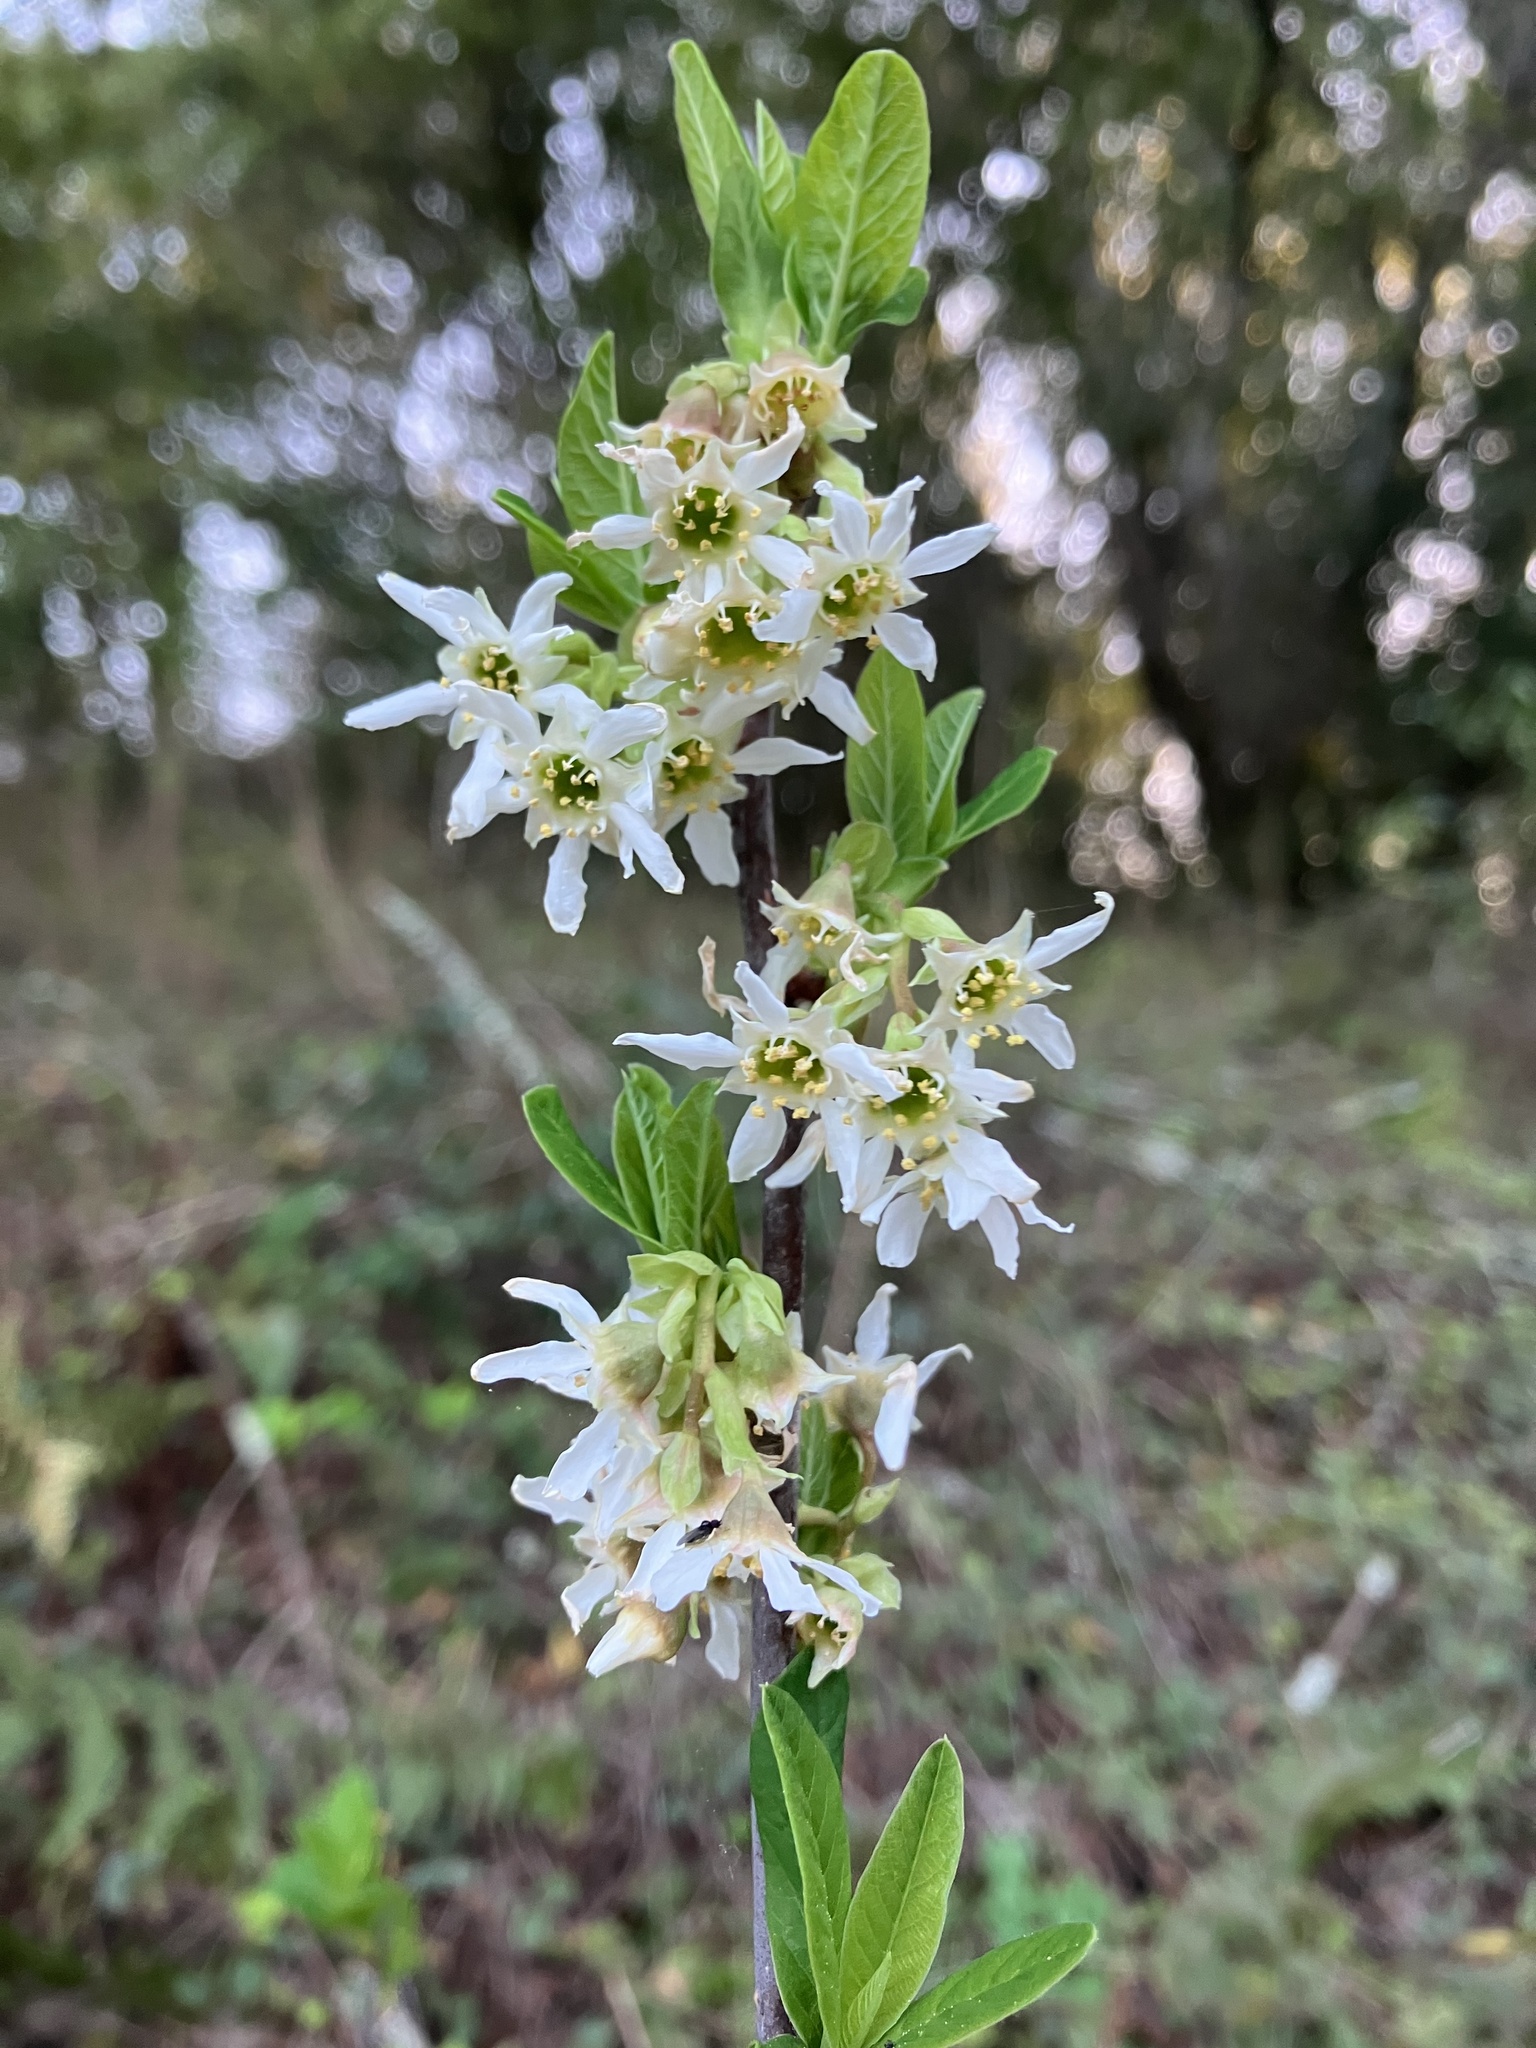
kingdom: Plantae
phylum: Tracheophyta
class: Magnoliopsida
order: Rosales
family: Rosaceae
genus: Oemleria
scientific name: Oemleria cerasiformis
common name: Osoberry
